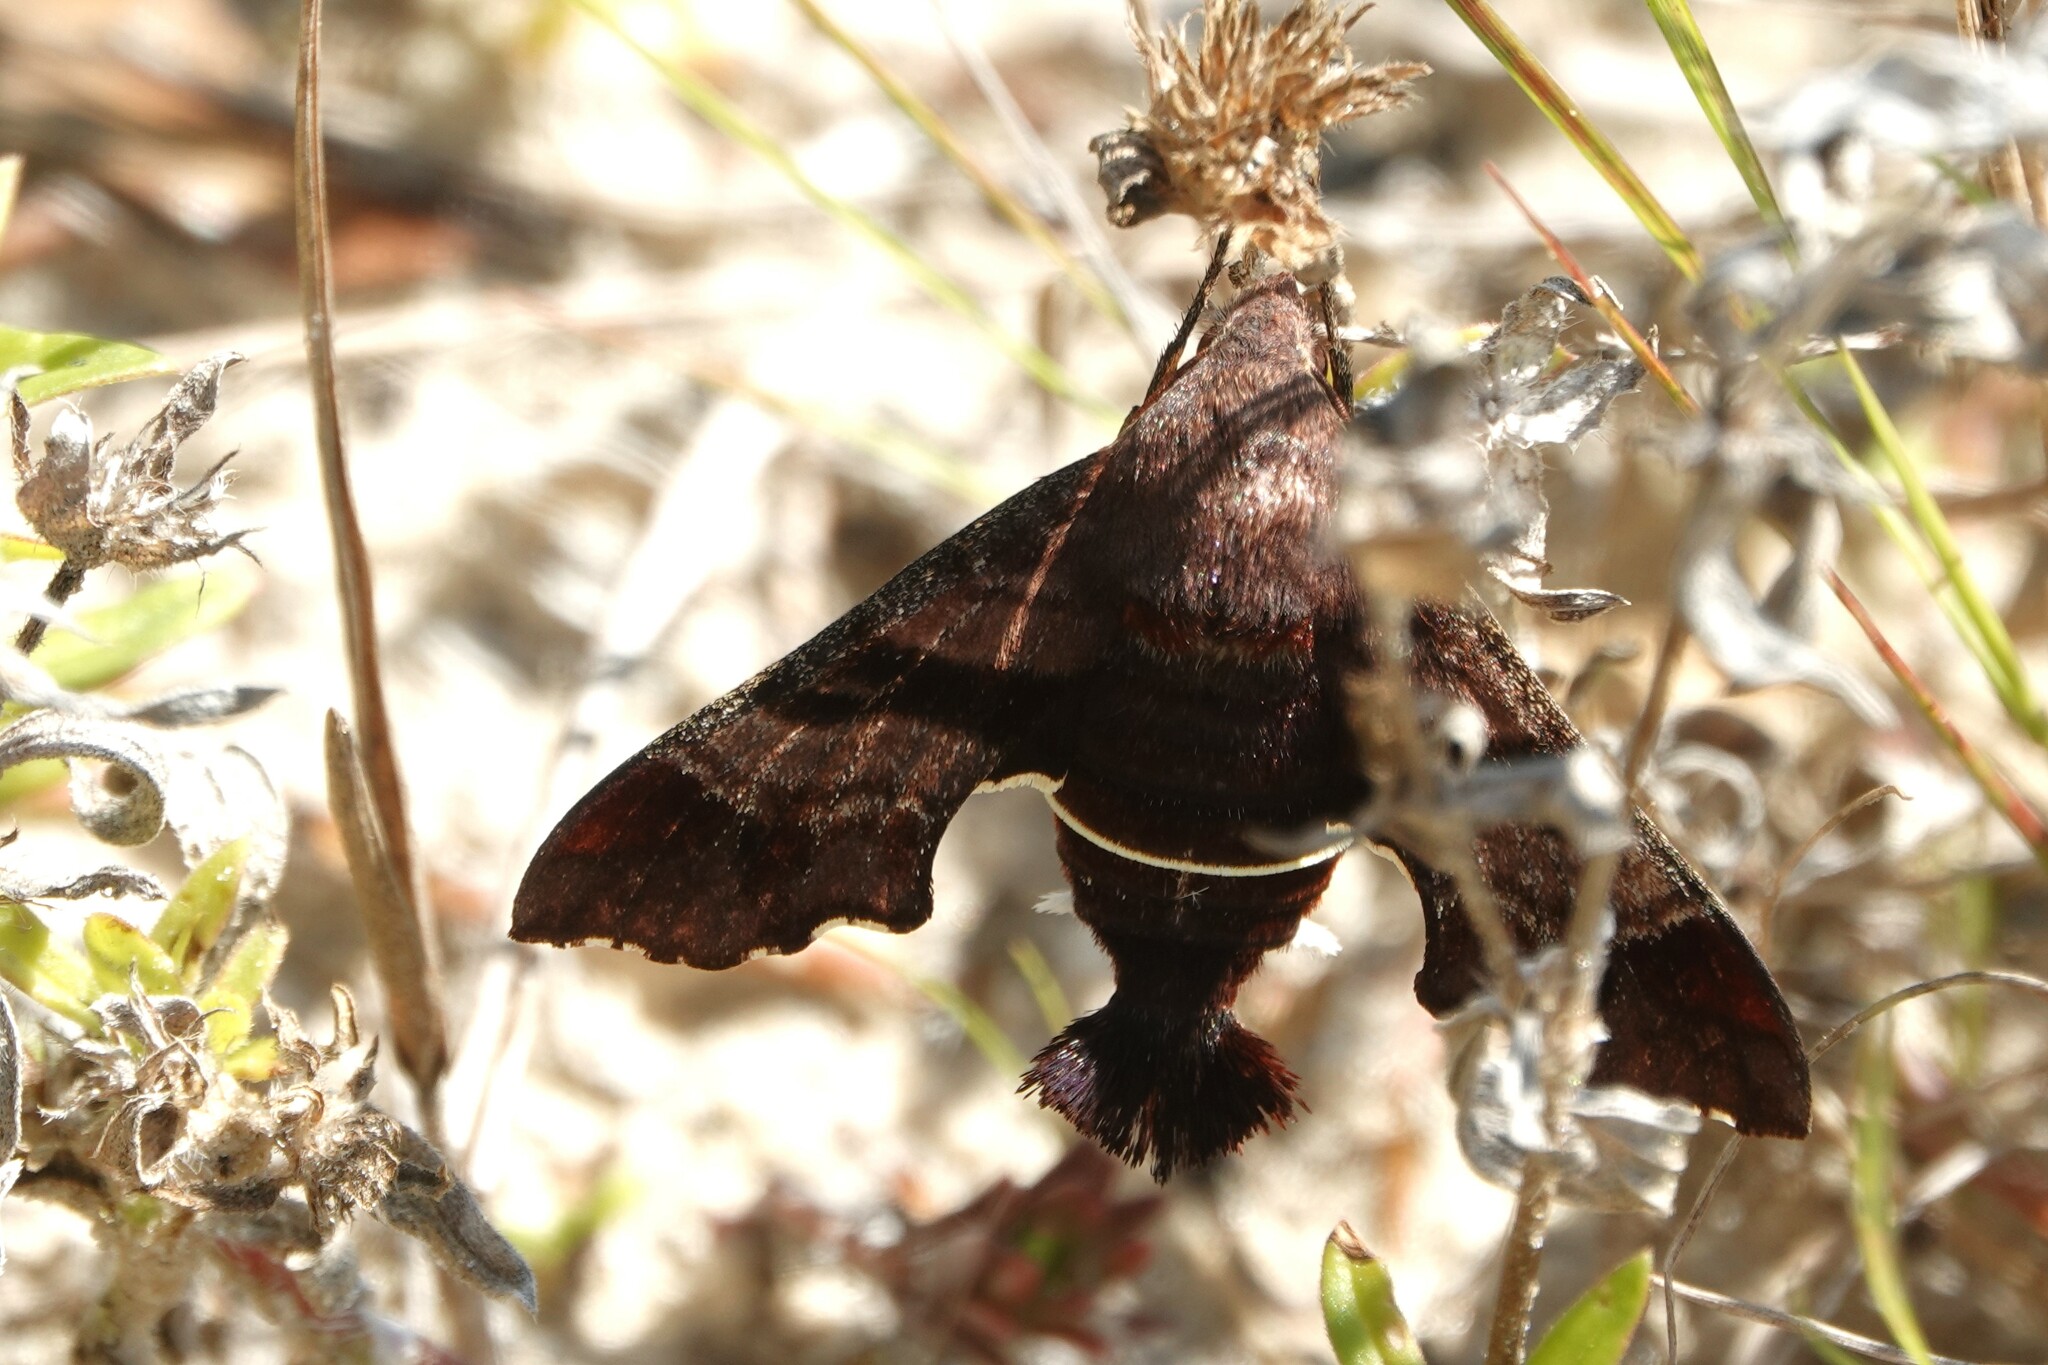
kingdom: Animalia
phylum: Arthropoda
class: Insecta
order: Lepidoptera
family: Sphingidae
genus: Amphion
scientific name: Amphion floridensis
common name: Nessus sphinx
